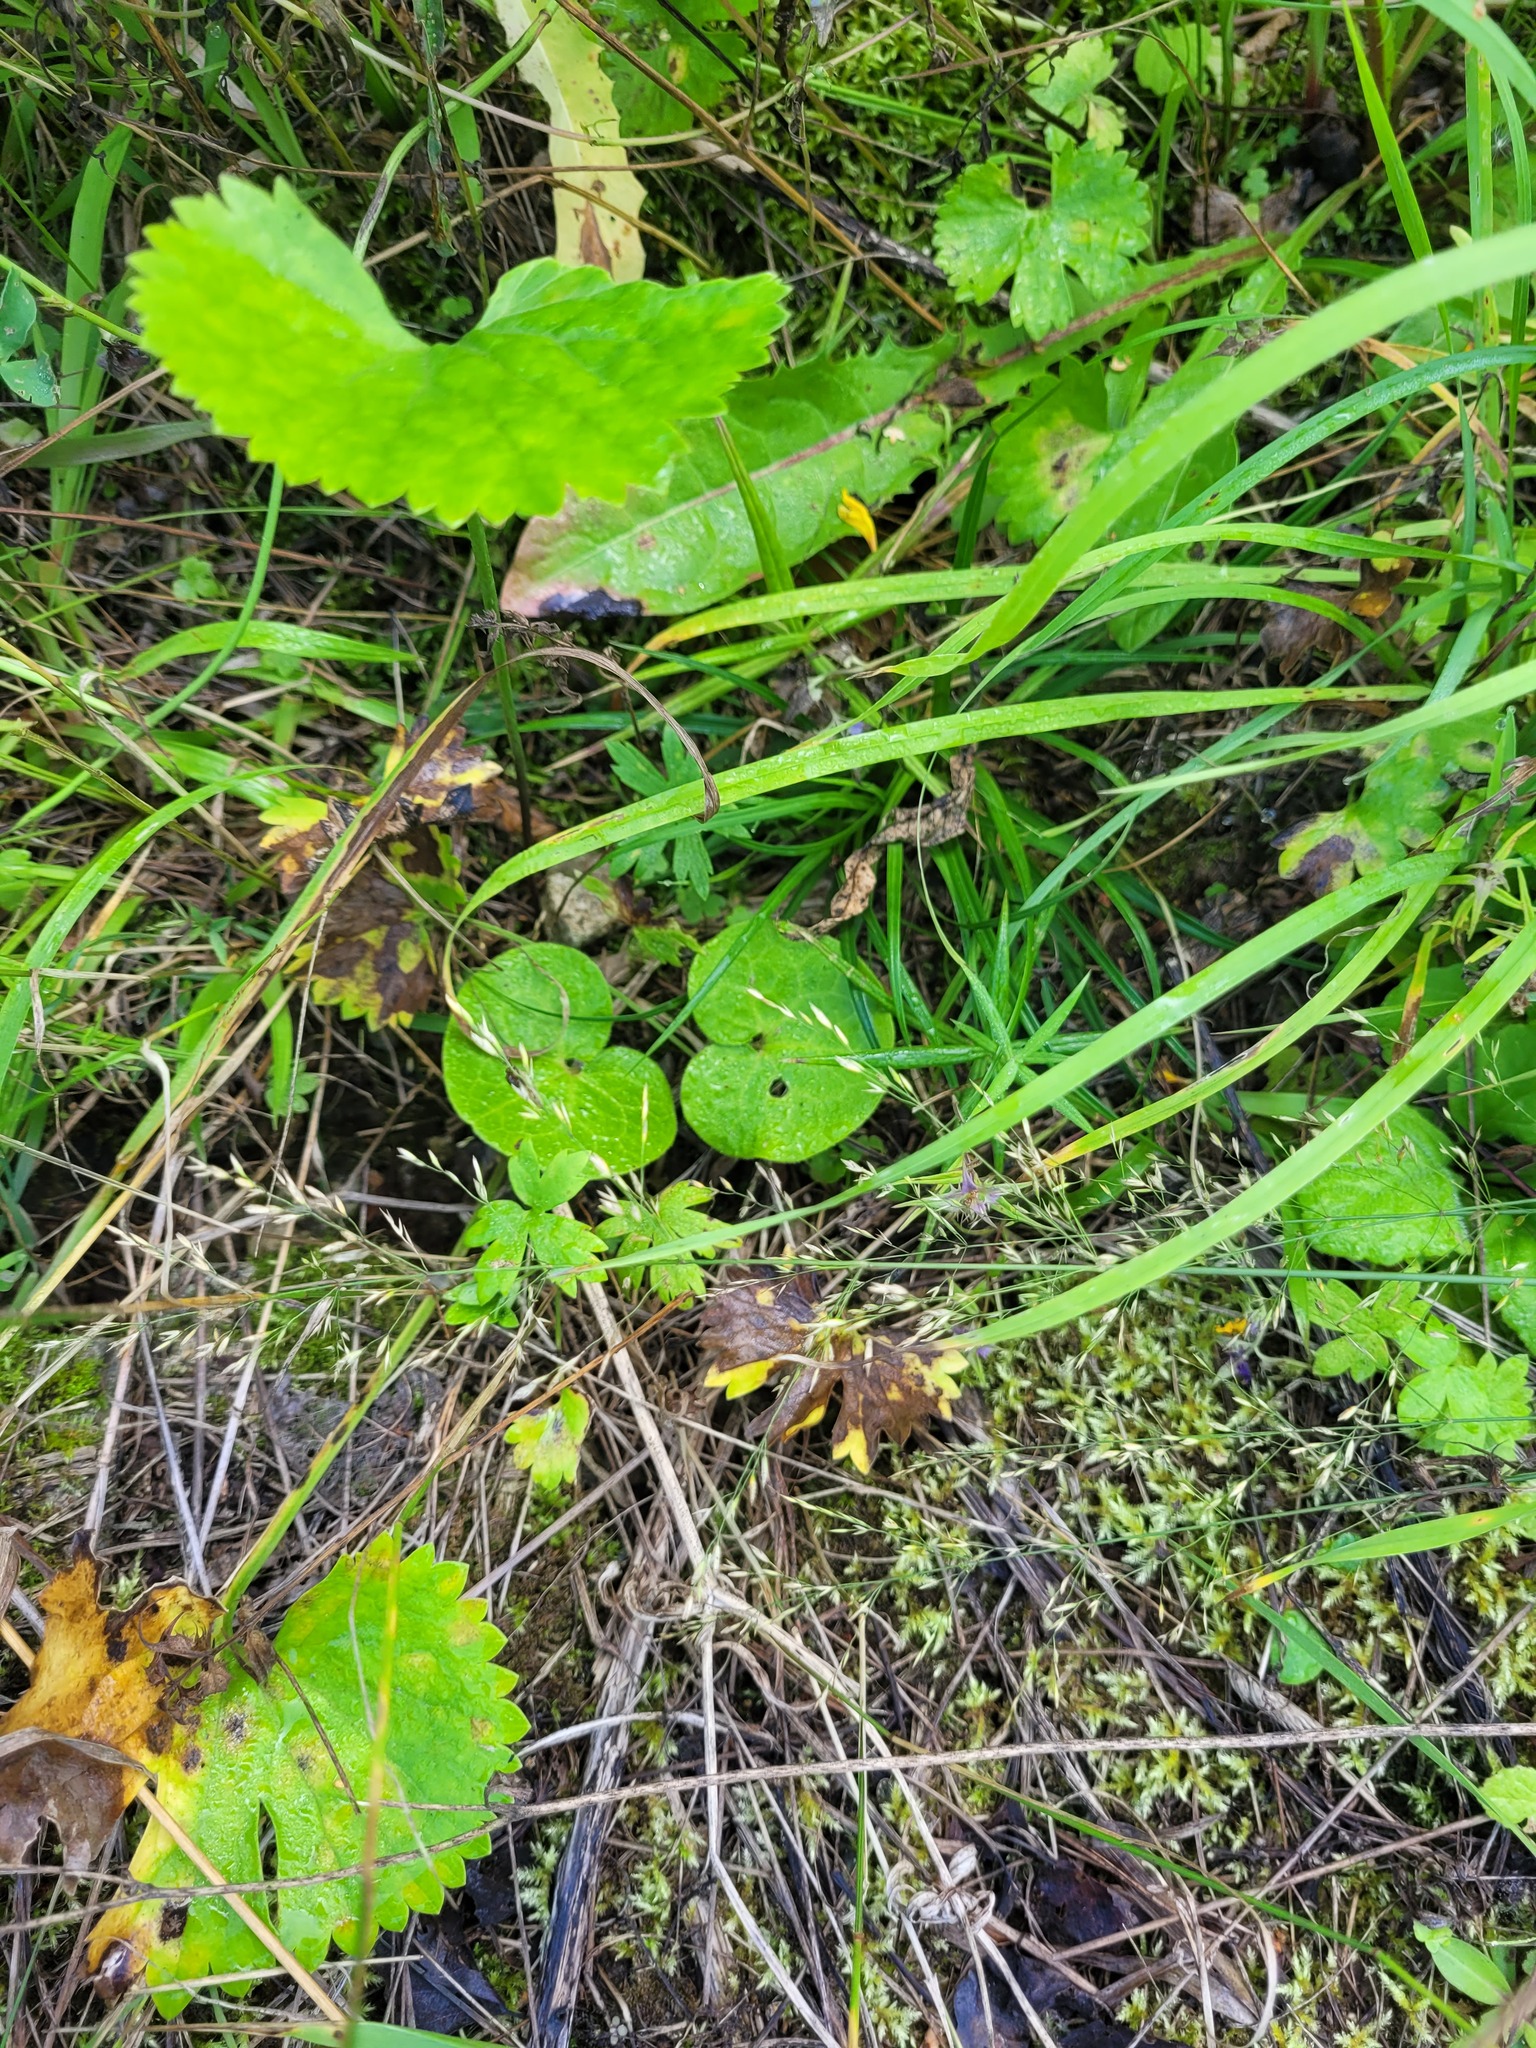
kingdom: Plantae
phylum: Tracheophyta
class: Magnoliopsida
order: Piperales
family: Aristolochiaceae
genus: Asarum
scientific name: Asarum europaeum
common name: Asarabacca
